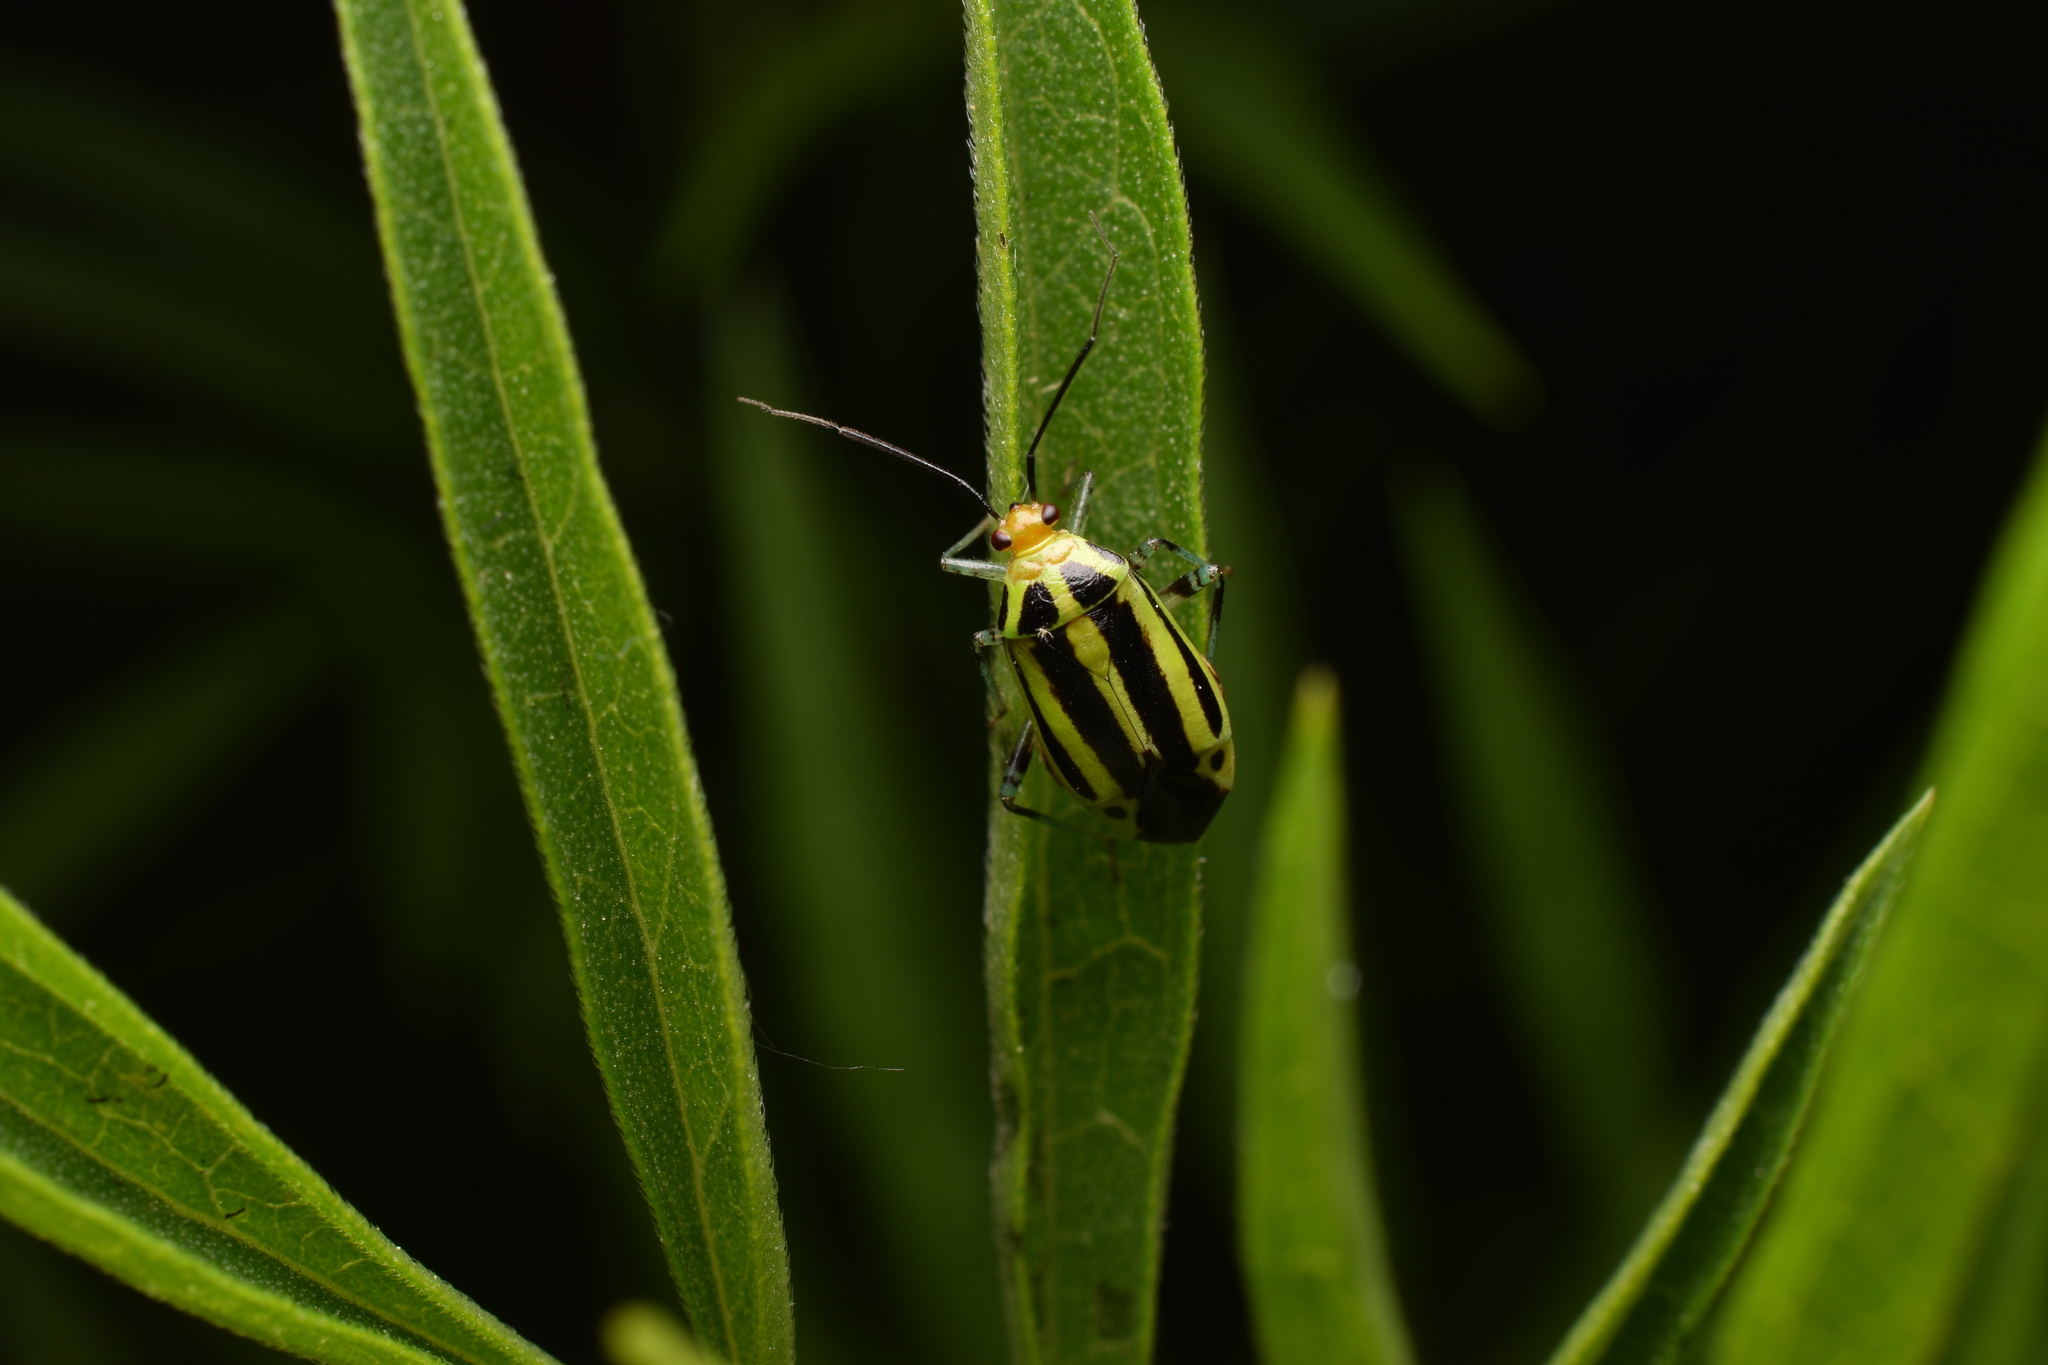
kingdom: Animalia
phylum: Arthropoda
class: Insecta
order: Hemiptera
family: Miridae
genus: Poecilocapsus
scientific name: Poecilocapsus lineatus
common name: Four-lined plant bug
